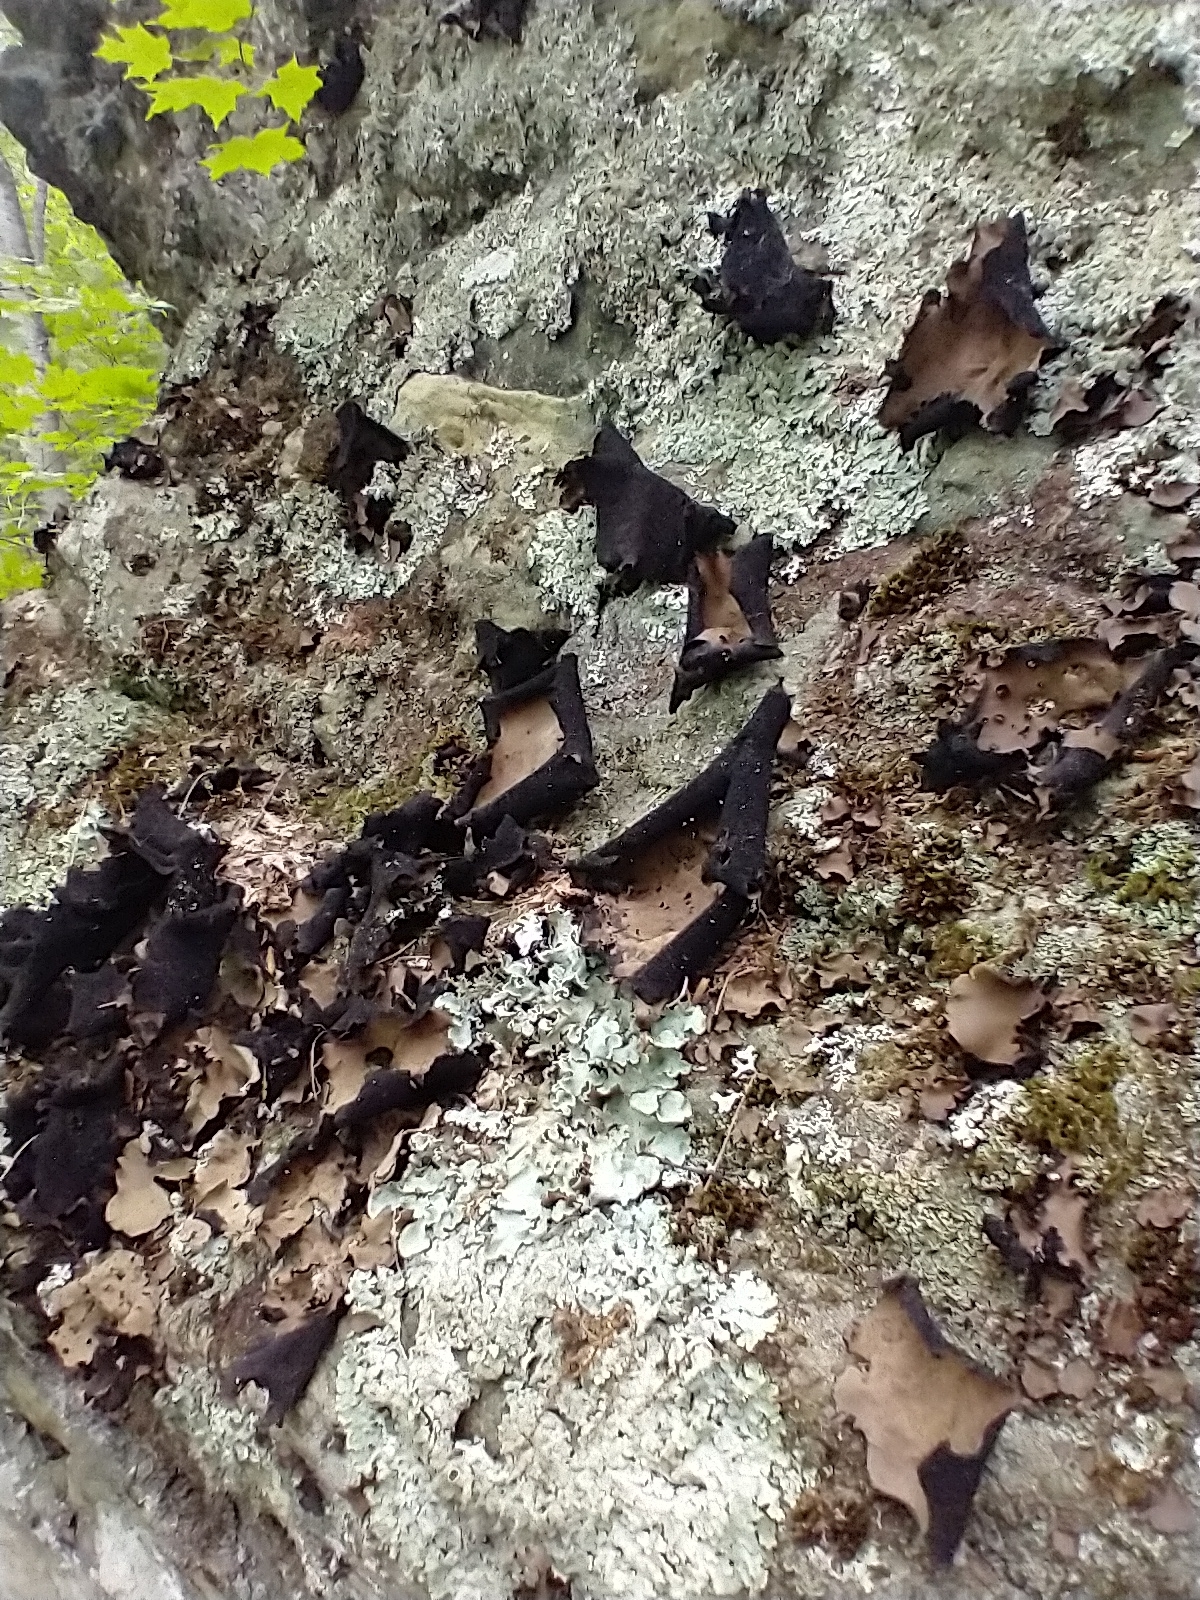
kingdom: Fungi
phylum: Ascomycota
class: Lecanoromycetes
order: Umbilicariales
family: Umbilicariaceae
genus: Umbilicaria
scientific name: Umbilicaria mammulata
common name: Smooth rock tripe
